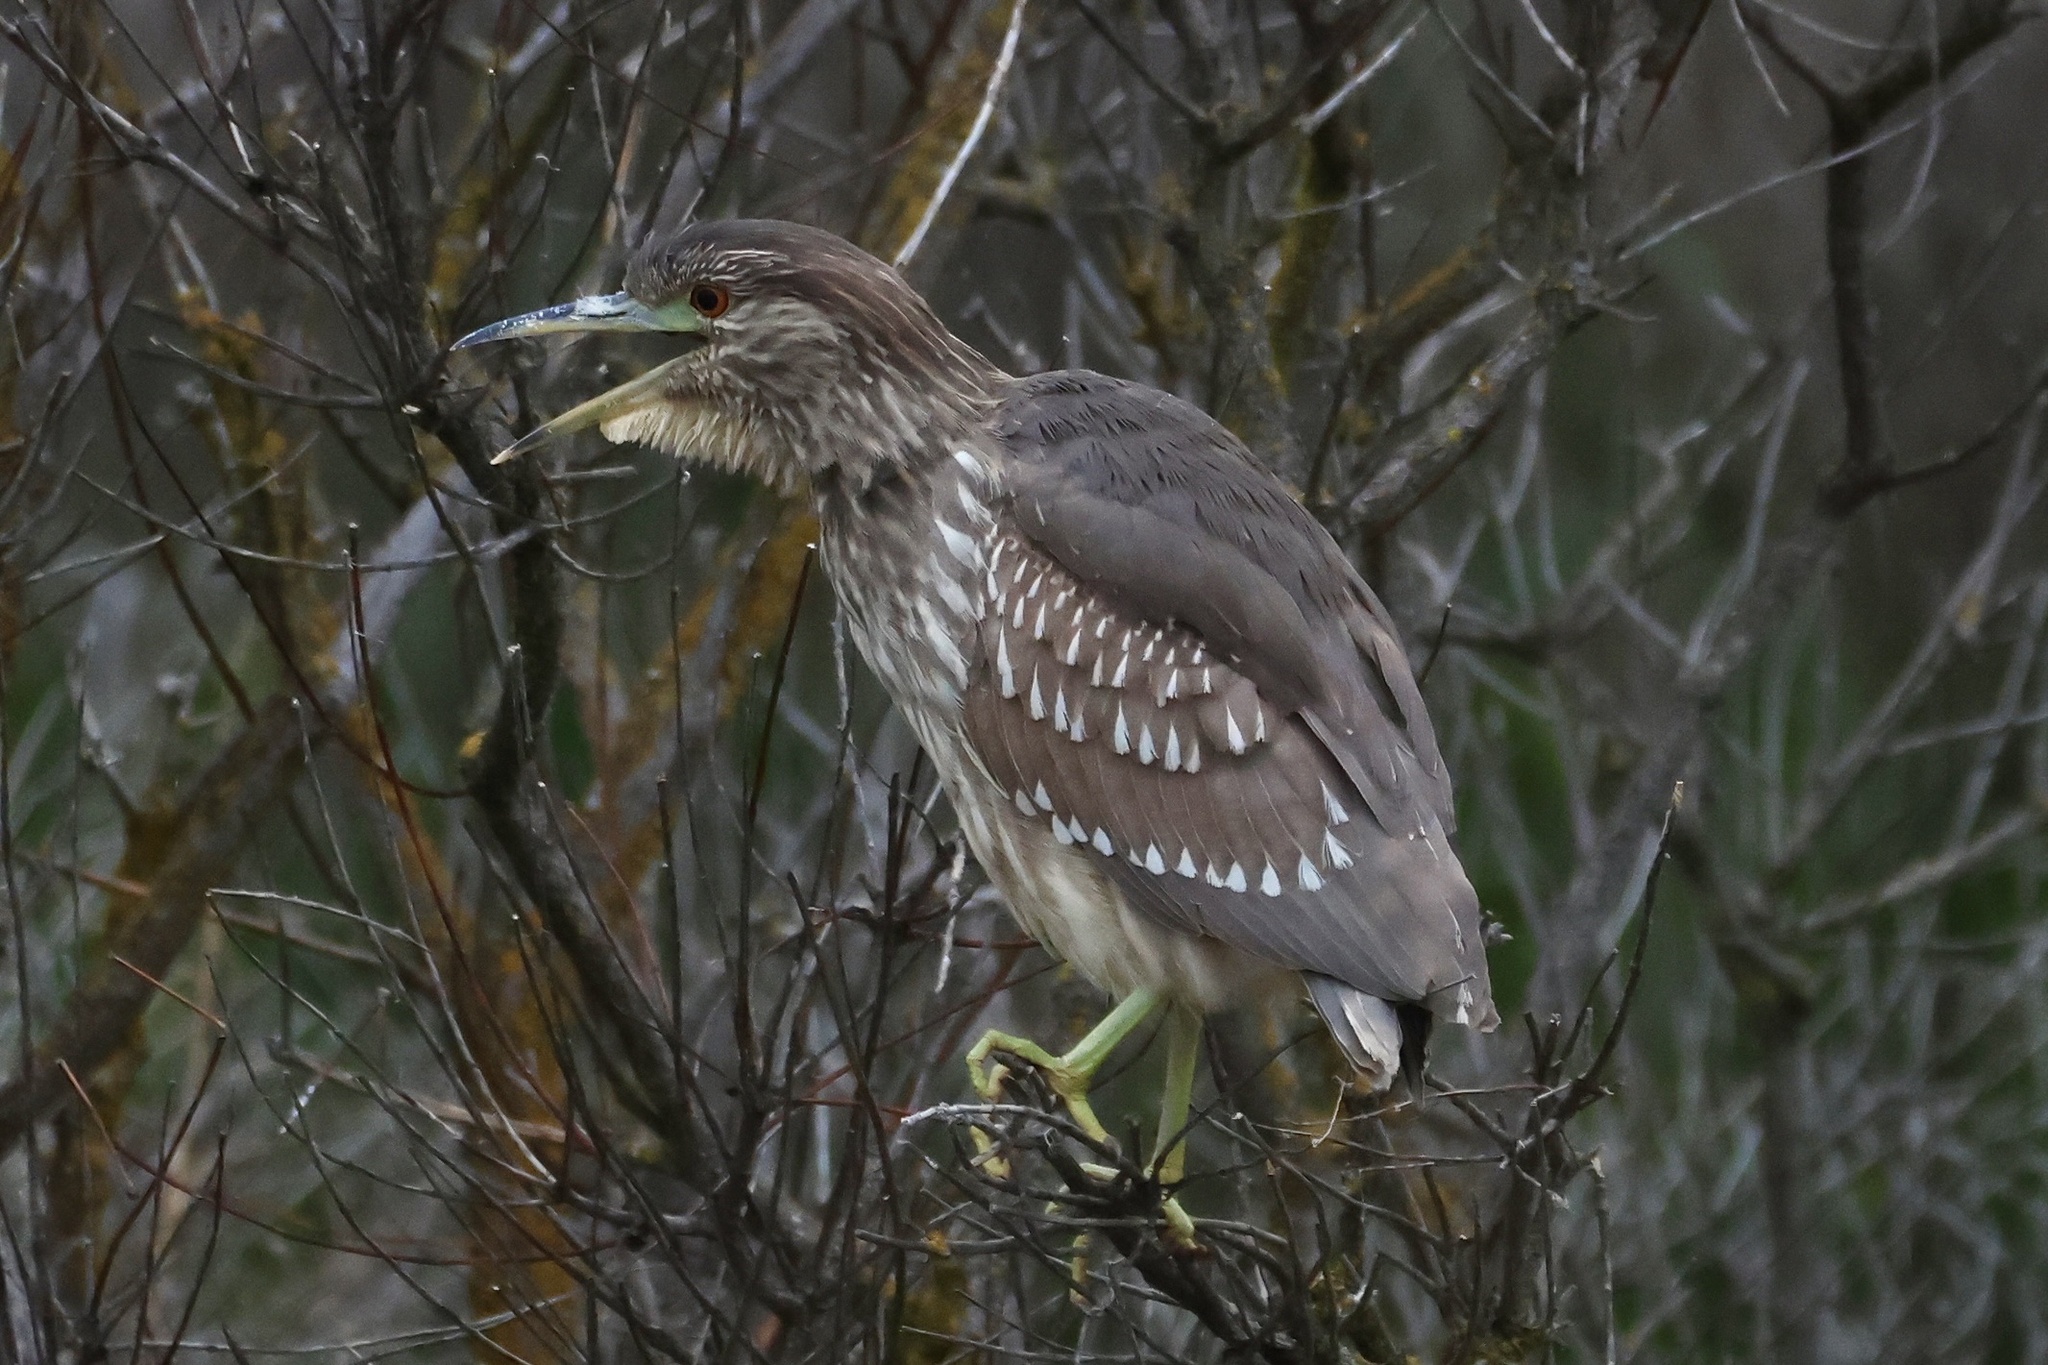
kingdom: Animalia
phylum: Chordata
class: Aves
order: Pelecaniformes
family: Ardeidae
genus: Nycticorax
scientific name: Nycticorax nycticorax
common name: Black-crowned night heron
